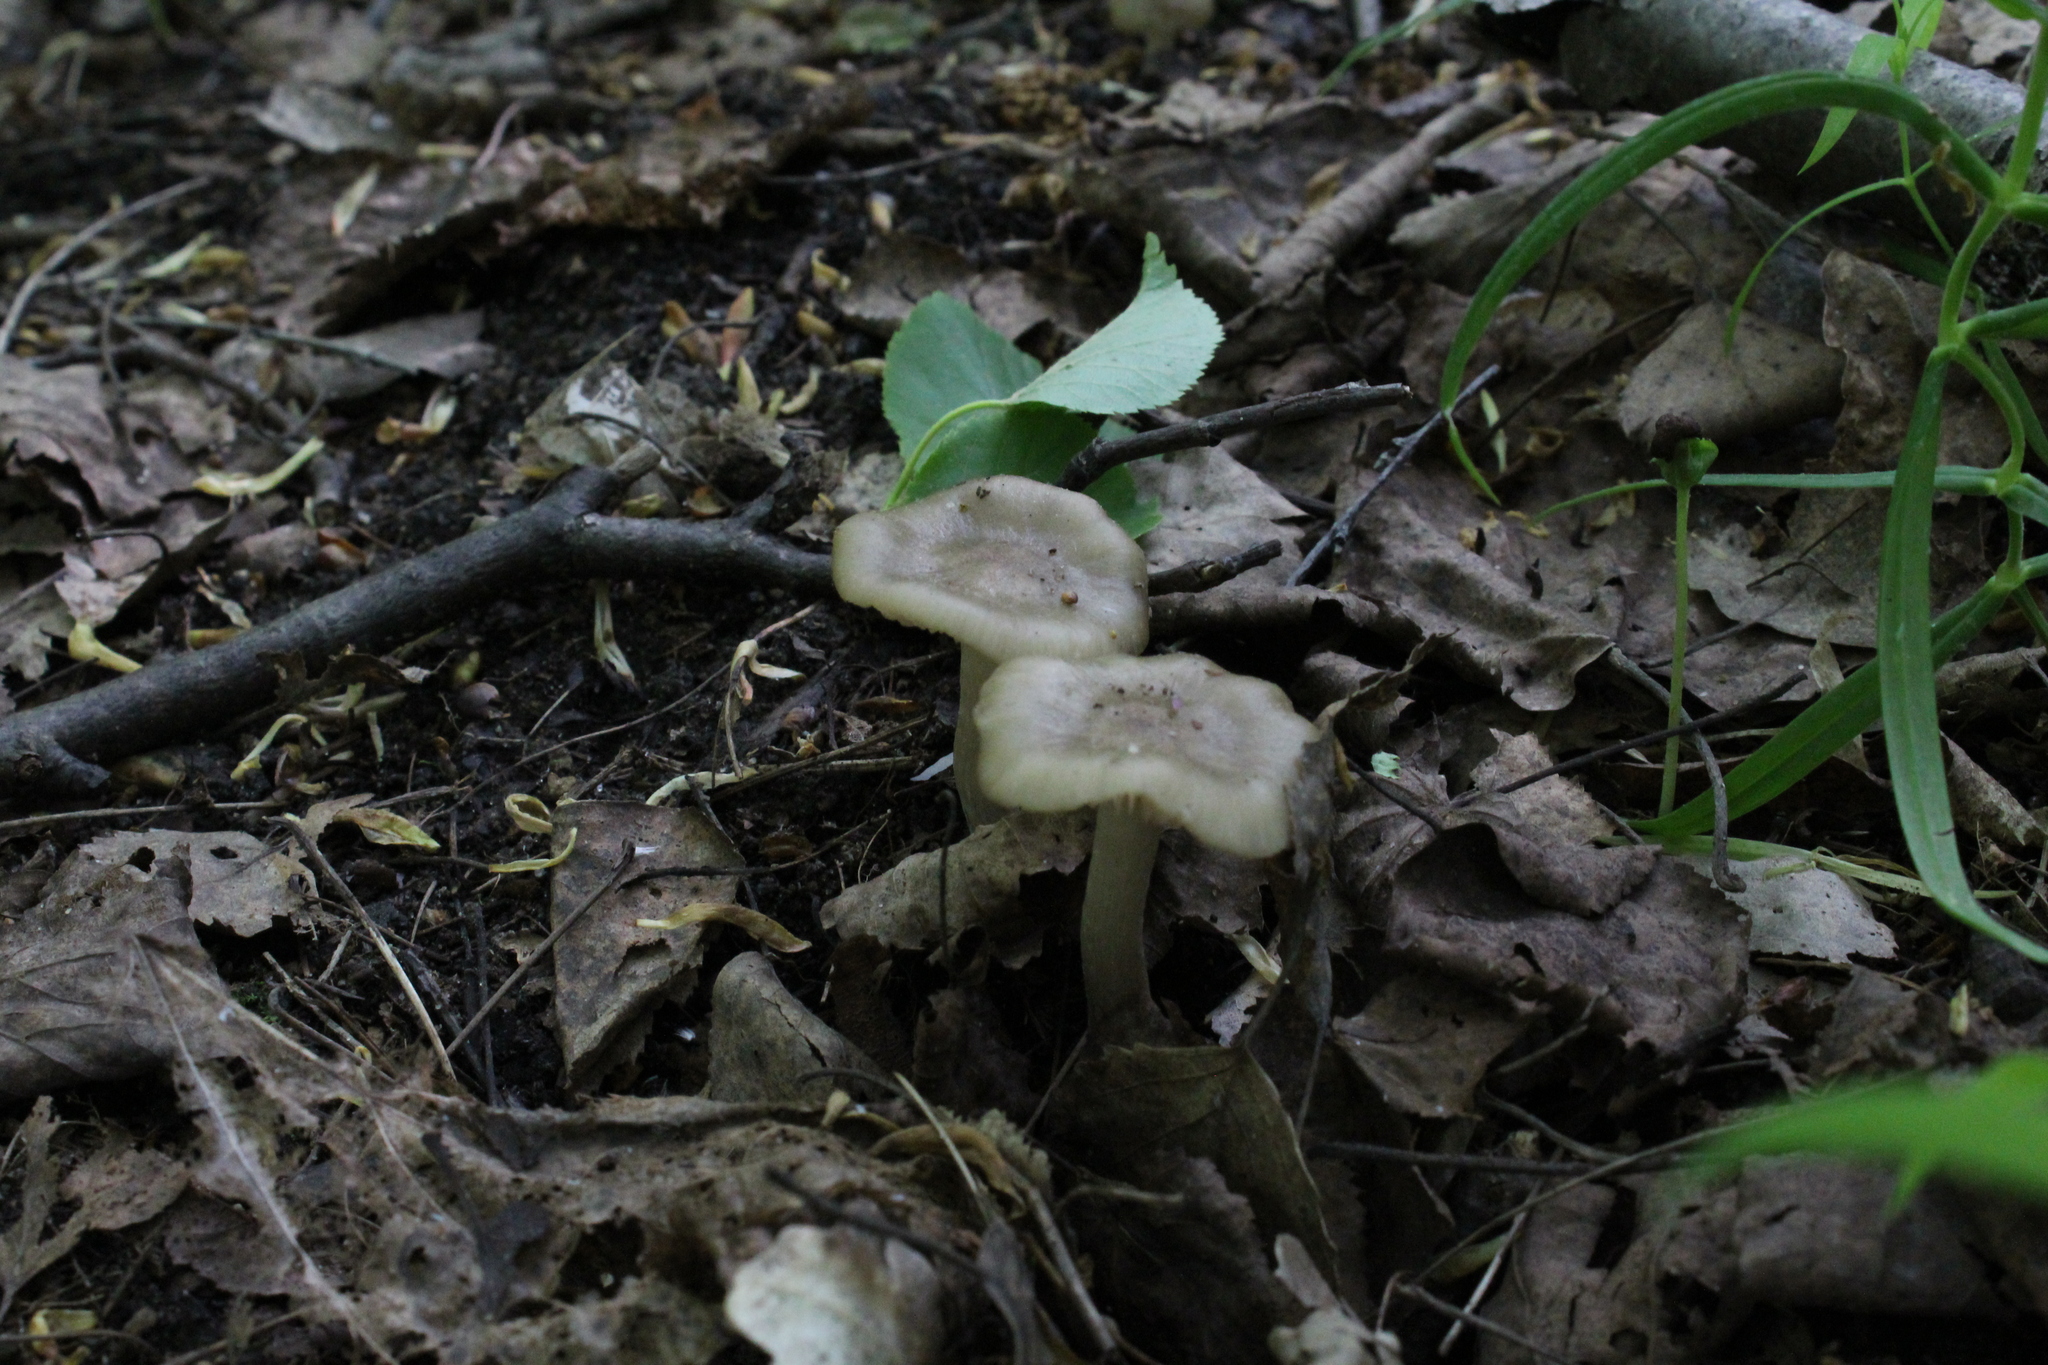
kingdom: Fungi
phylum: Basidiomycota
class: Agaricomycetes
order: Agaricales
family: Entolomataceae
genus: Entoloma
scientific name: Entoloma clypeatum
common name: Shield pinkgill
